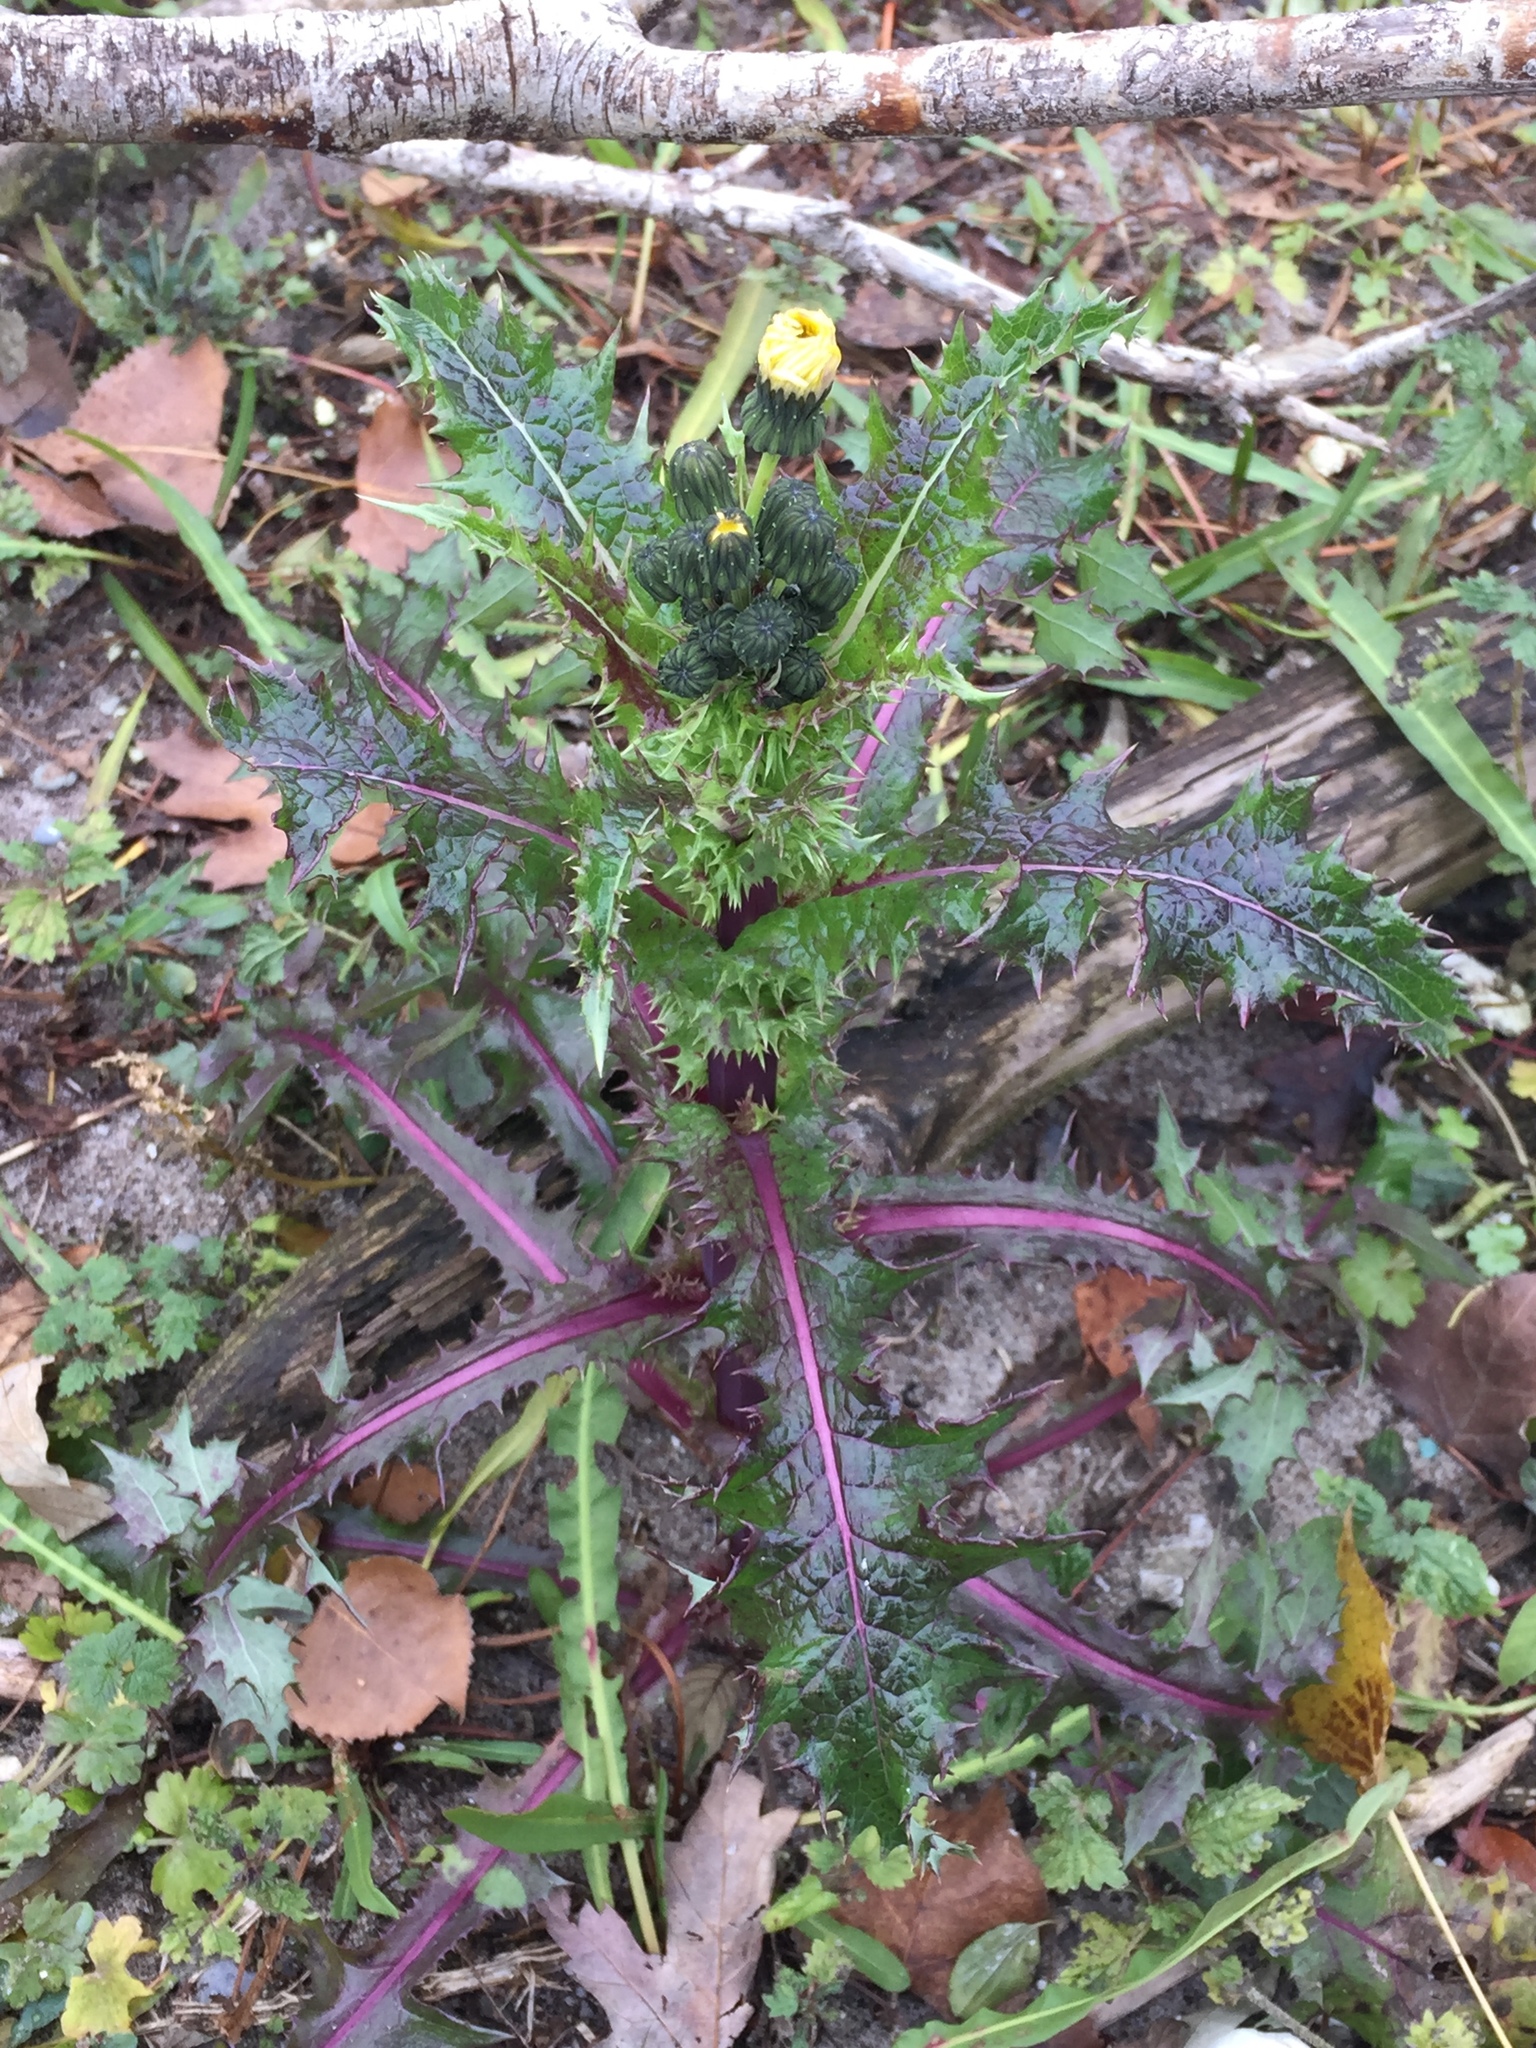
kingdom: Plantae
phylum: Tracheophyta
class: Magnoliopsida
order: Asterales
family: Asteraceae
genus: Sonchus
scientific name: Sonchus asper
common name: Prickly sow-thistle
